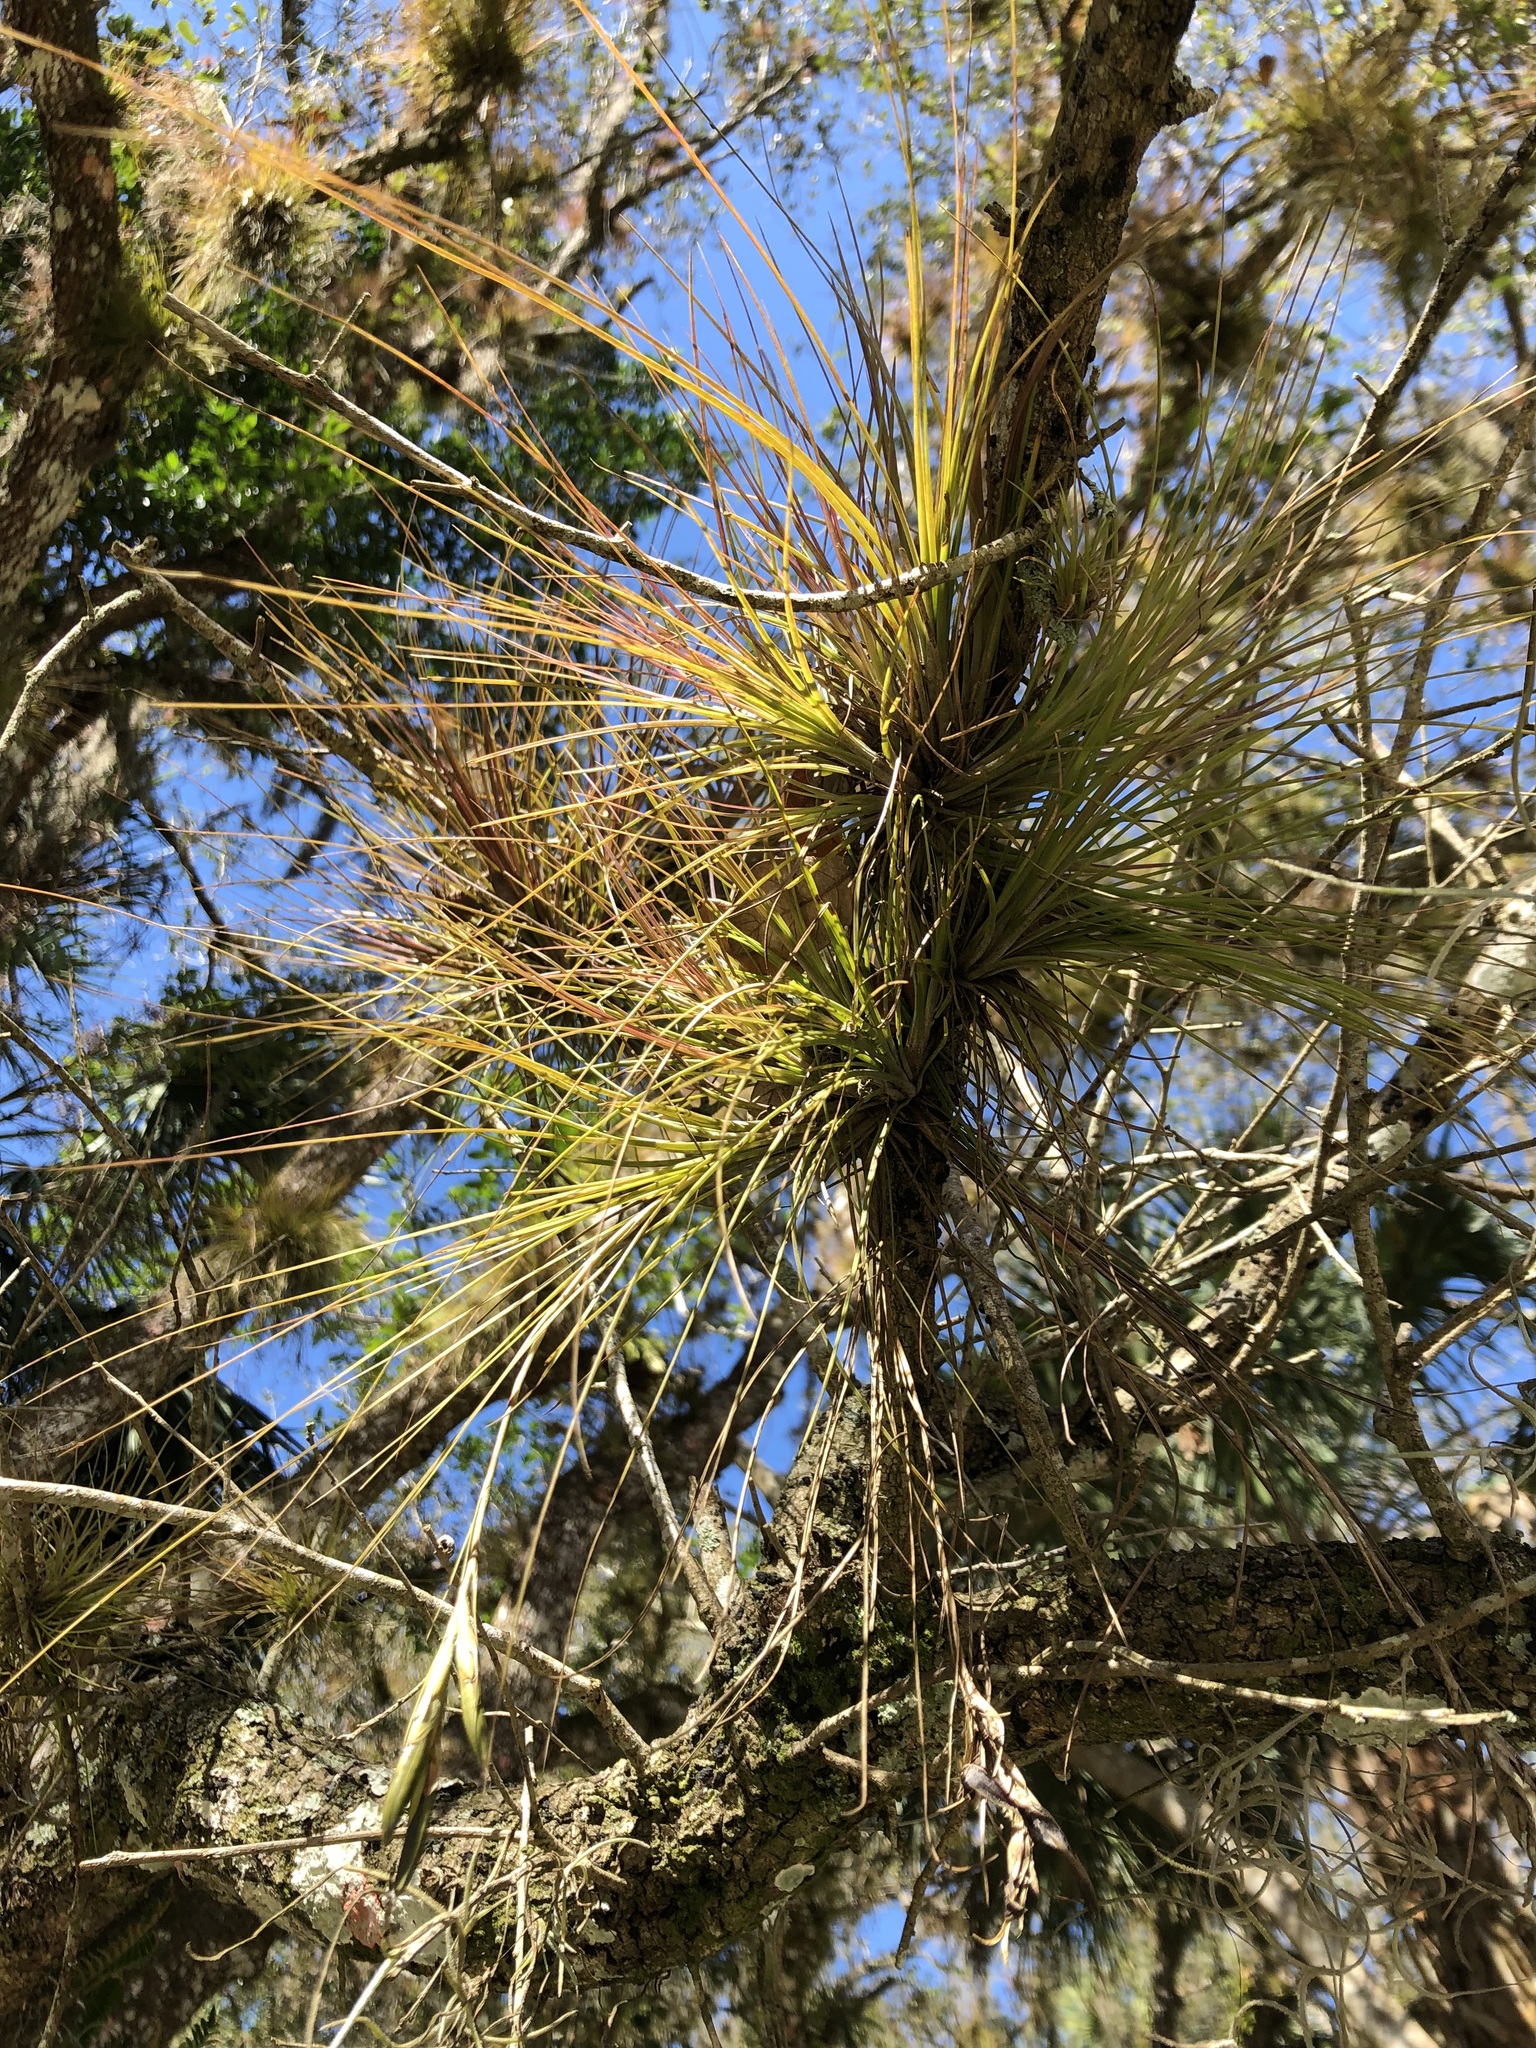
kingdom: Plantae
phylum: Tracheophyta
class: Liliopsida
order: Poales
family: Bromeliaceae
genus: Tillandsia
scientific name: Tillandsia setacea
